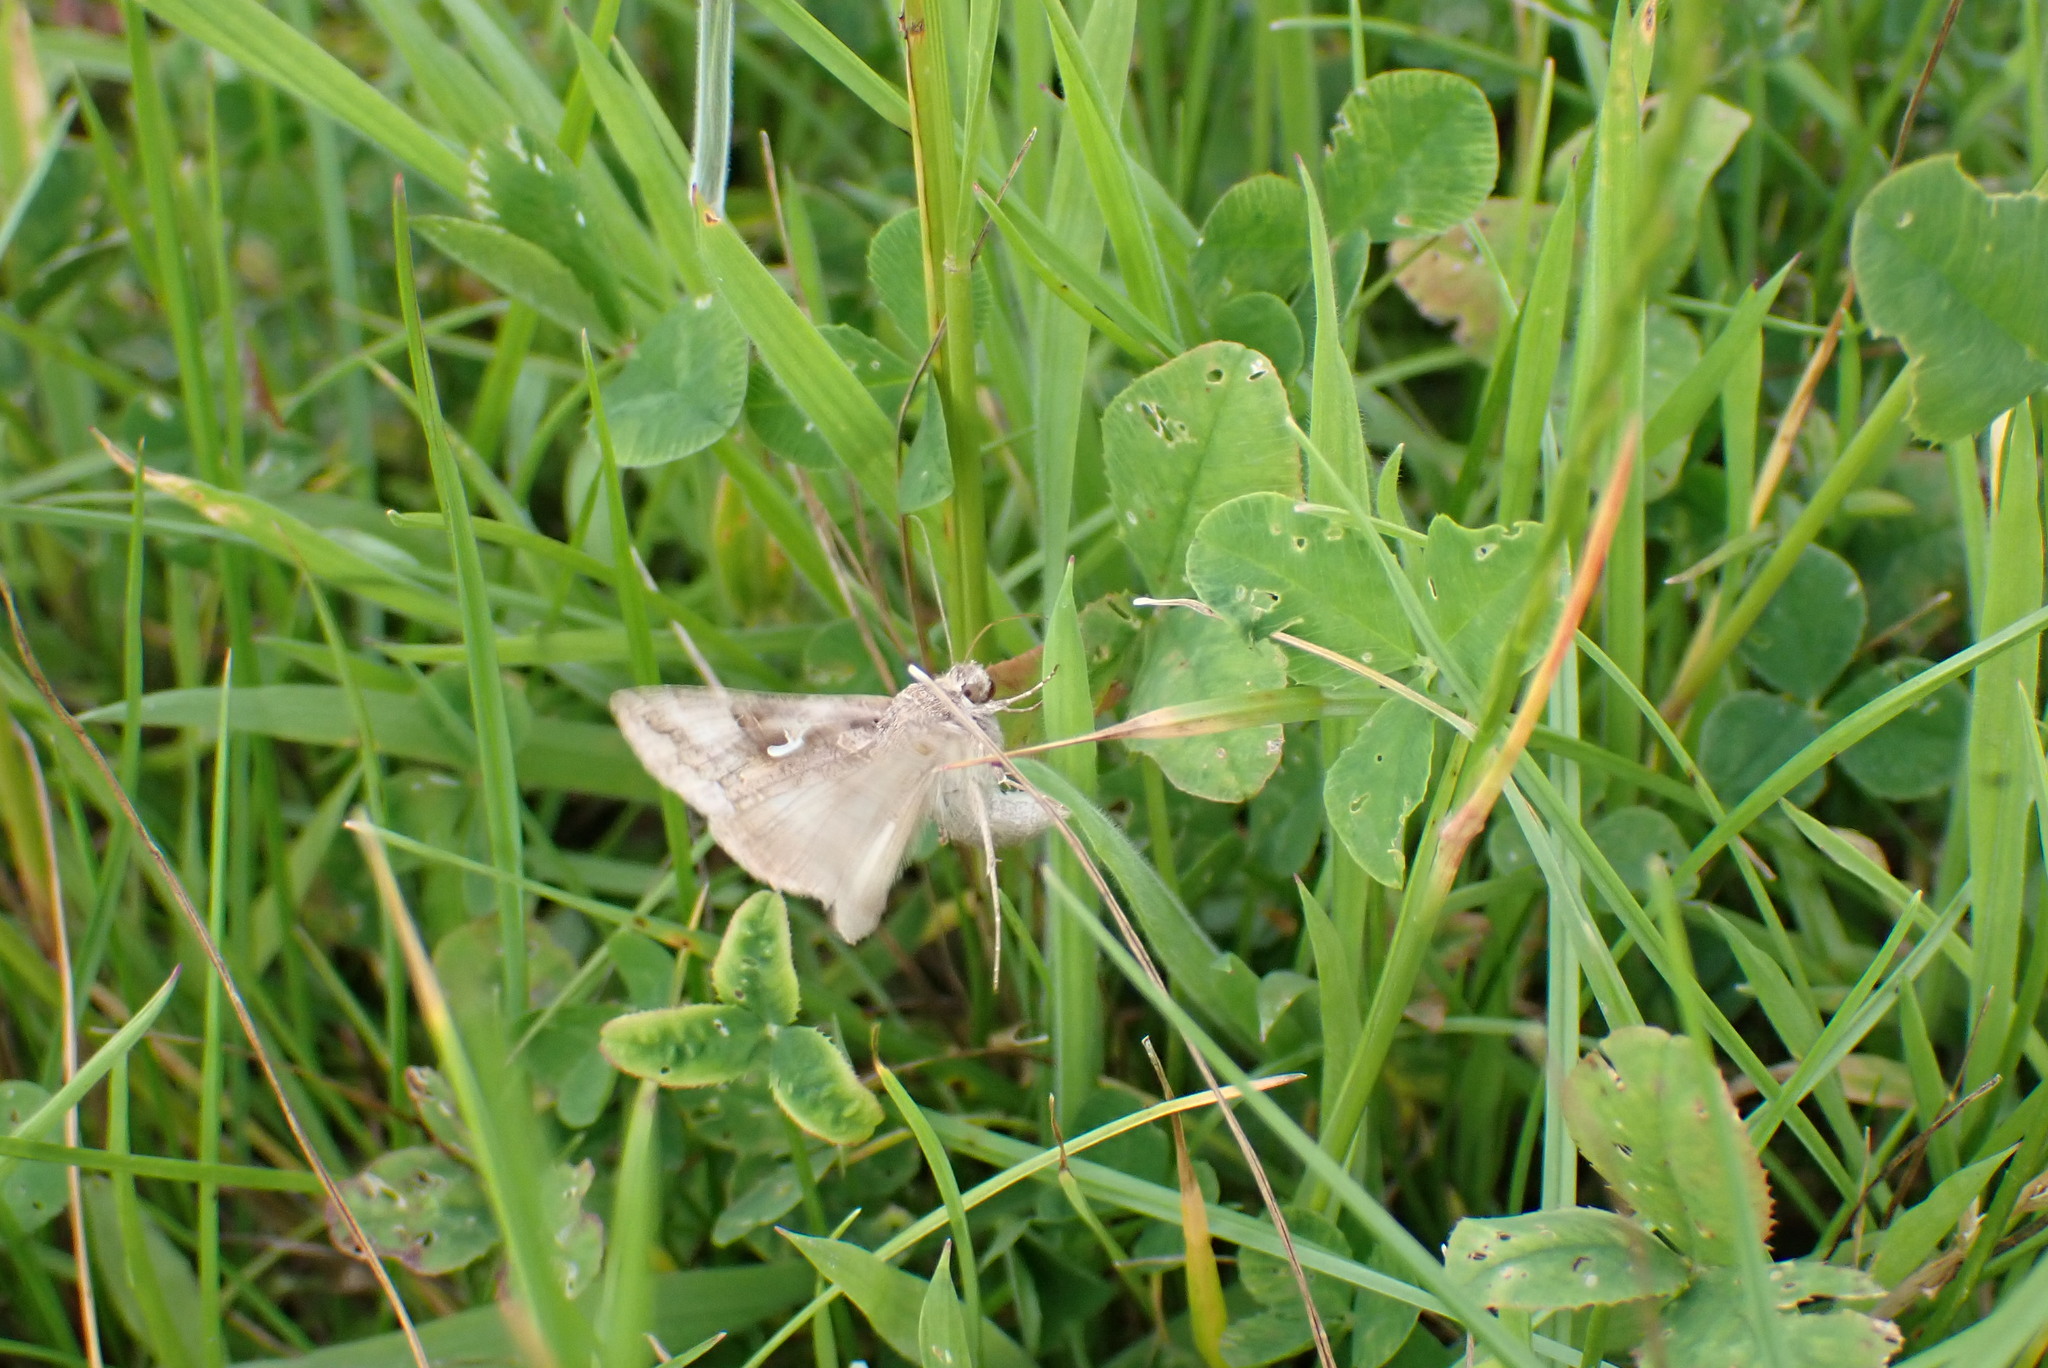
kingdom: Animalia
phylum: Arthropoda
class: Insecta
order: Lepidoptera
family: Noctuidae
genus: Autographa
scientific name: Autographa gamma
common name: Silver y
